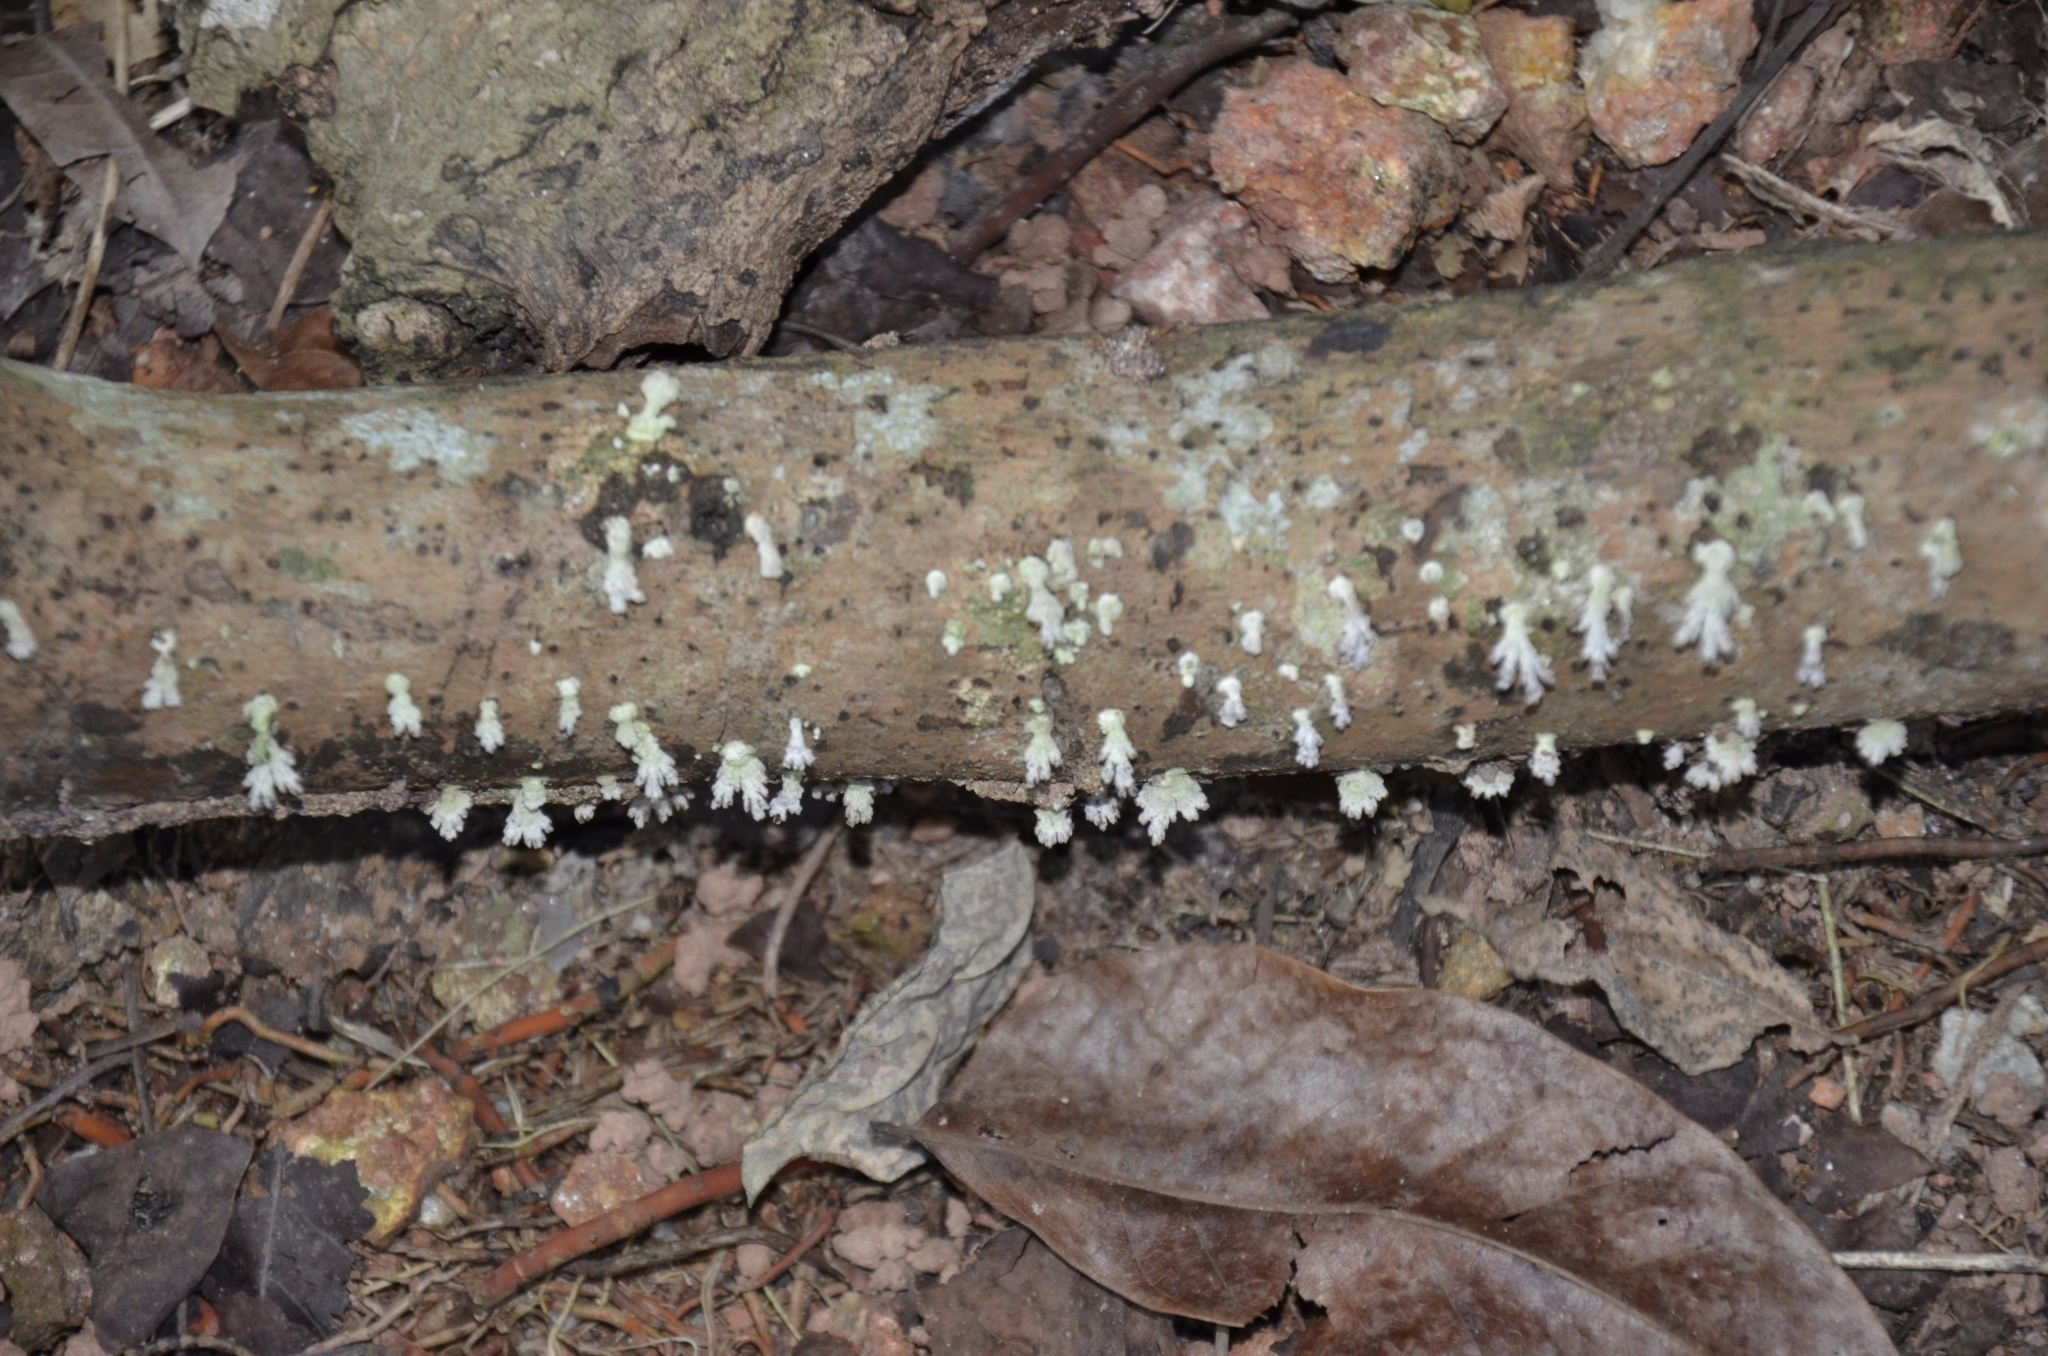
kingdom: Fungi
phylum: Basidiomycota
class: Agaricomycetes
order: Agaricales
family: Schizophyllaceae
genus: Schizophyllum
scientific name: Schizophyllum commune
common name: Common porecrust
